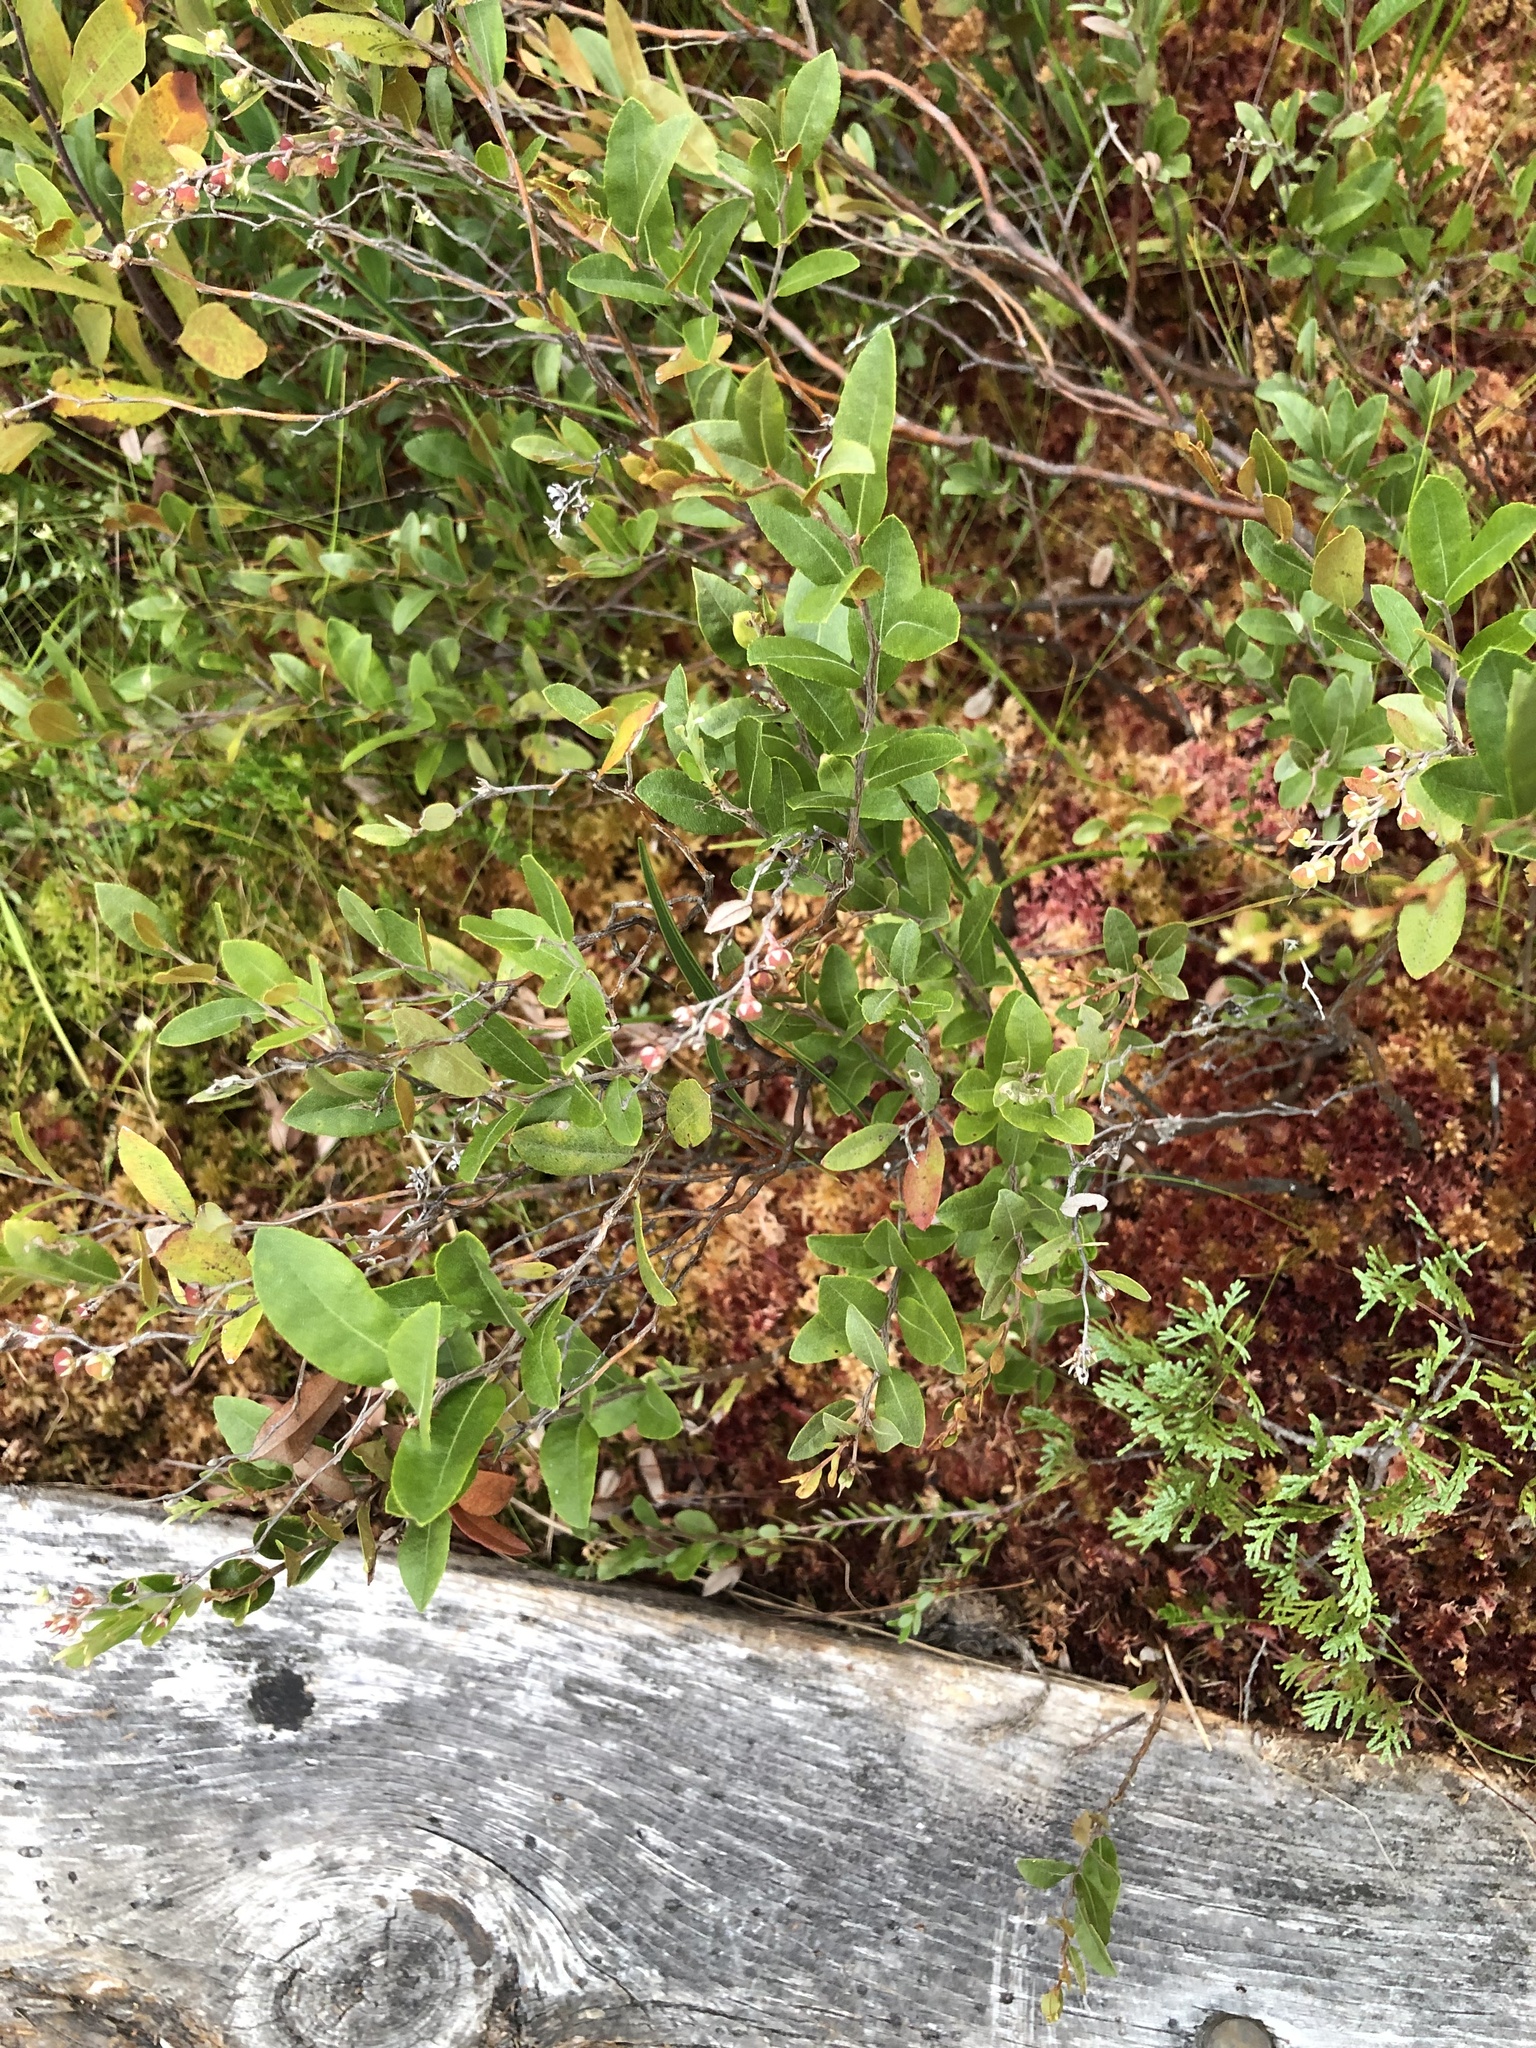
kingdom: Plantae
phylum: Tracheophyta
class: Magnoliopsida
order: Ericales
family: Ericaceae
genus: Chamaedaphne
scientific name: Chamaedaphne calyculata
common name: Leatherleaf
